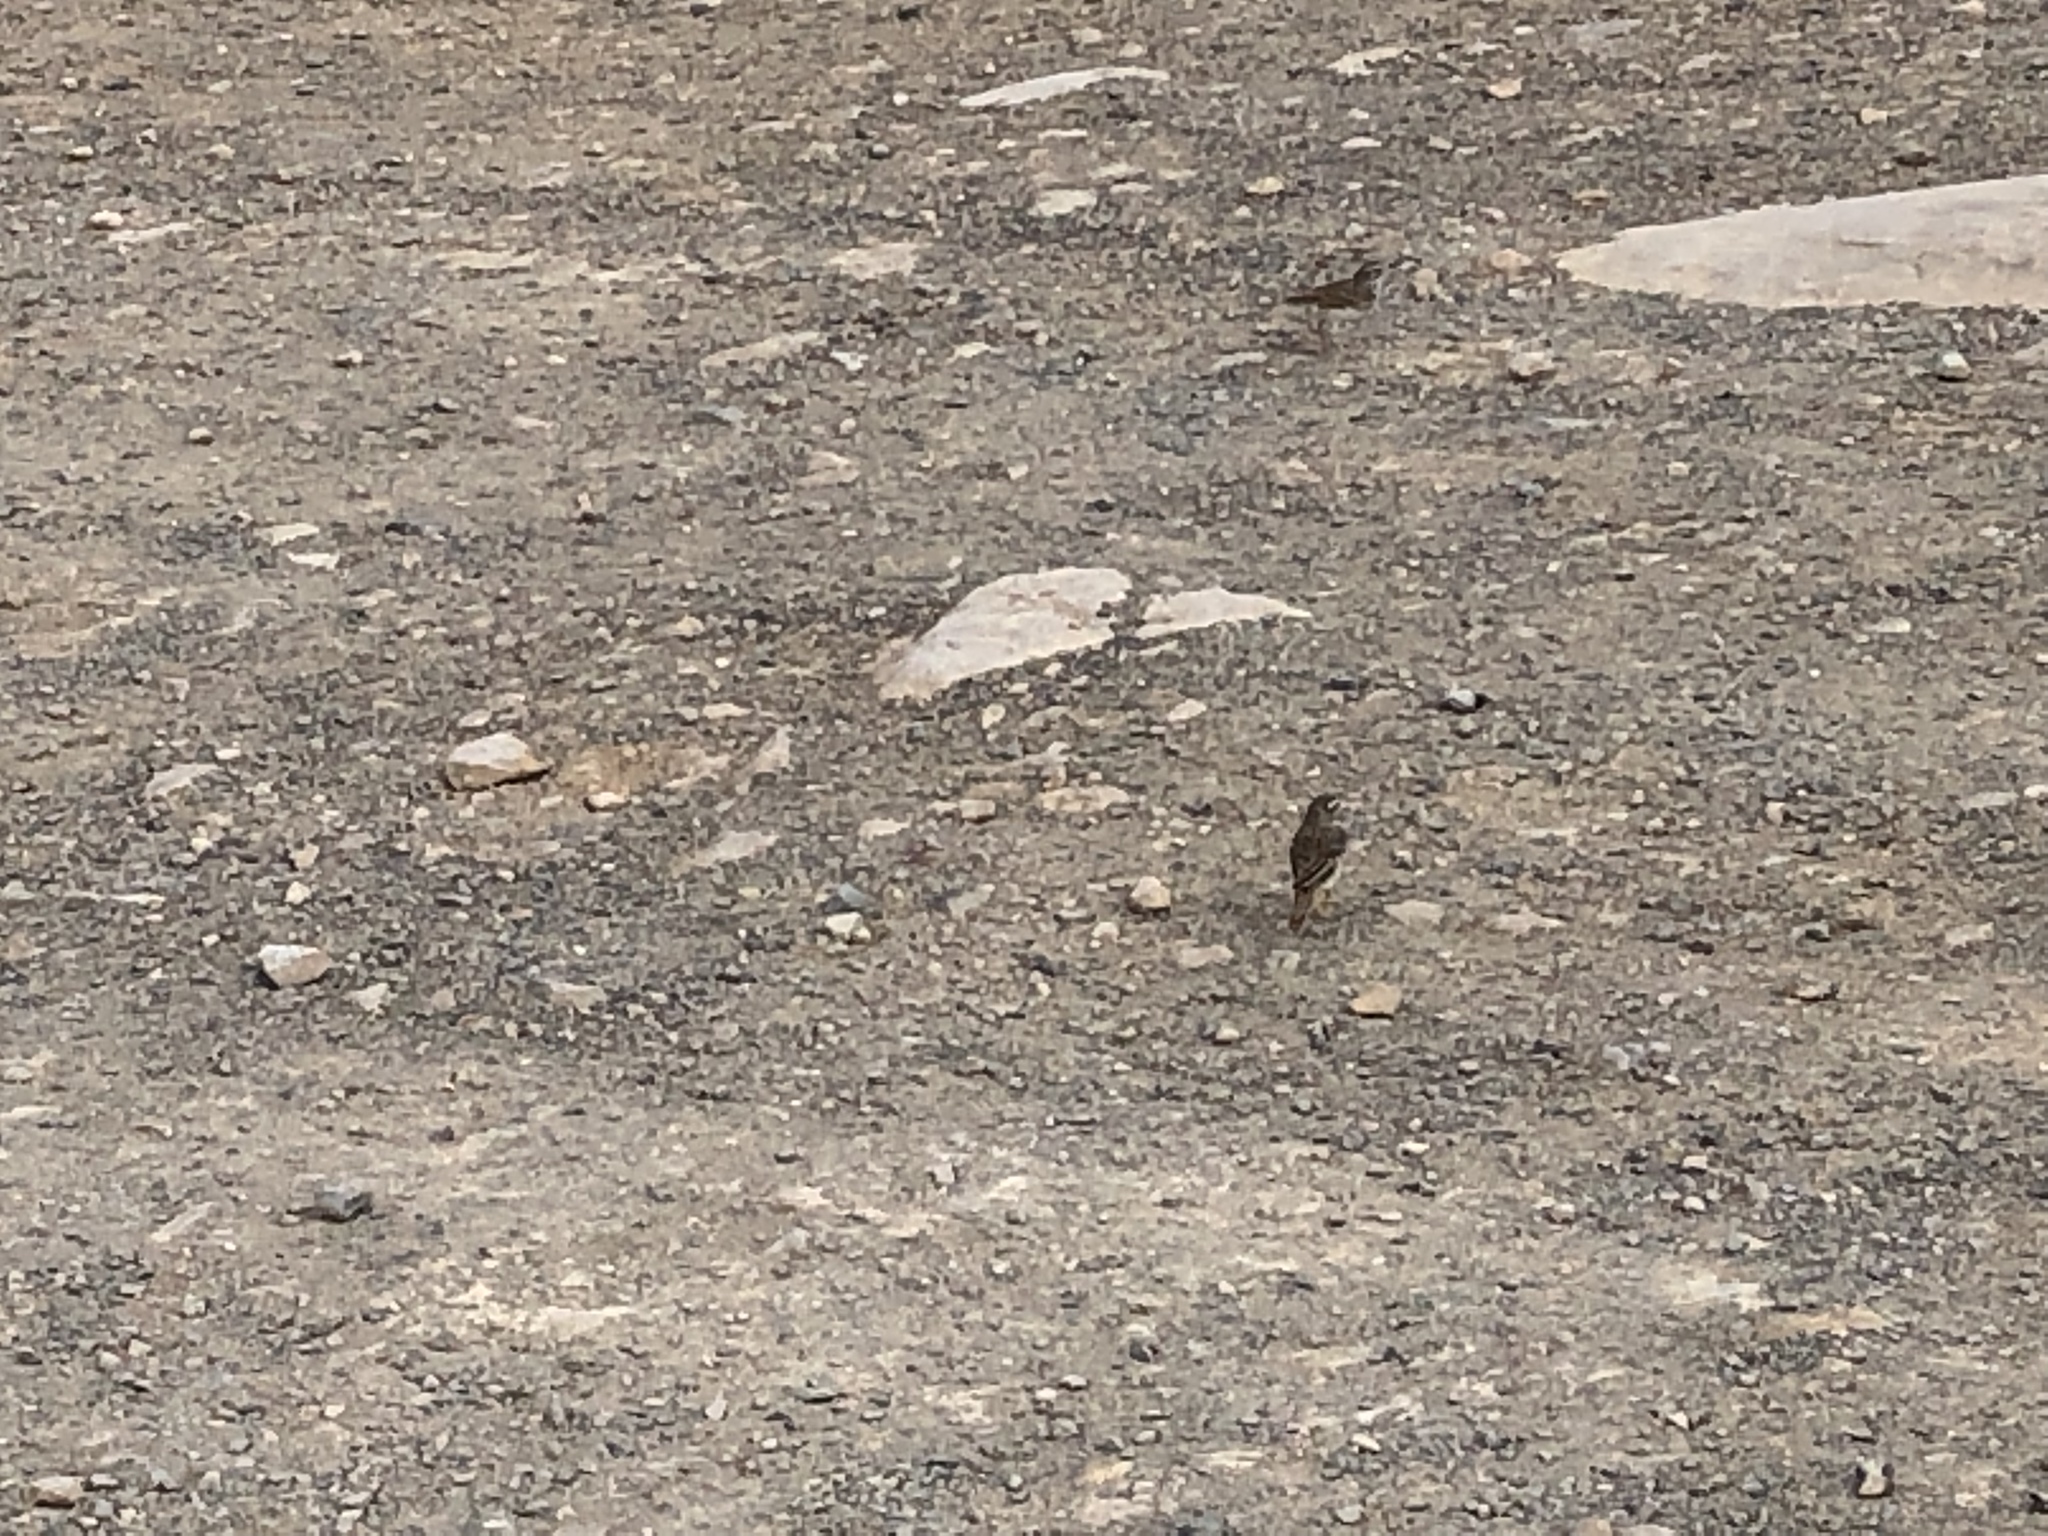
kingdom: Animalia
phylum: Chordata
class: Aves
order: Passeriformes
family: Motacillidae
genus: Anthus
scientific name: Anthus berthelotii
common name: Berthelot's pipit
